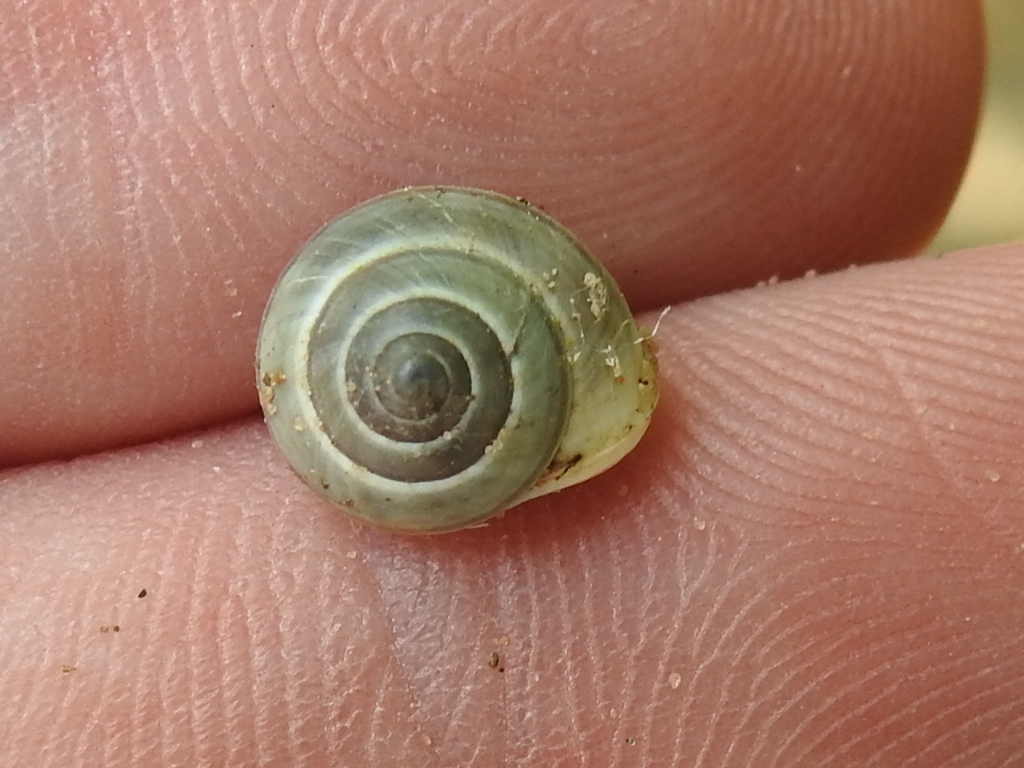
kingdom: Animalia
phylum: Mollusca
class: Gastropoda
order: Cycloneritida
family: Helicinidae
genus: Helicina
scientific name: Helicina orbiculata
